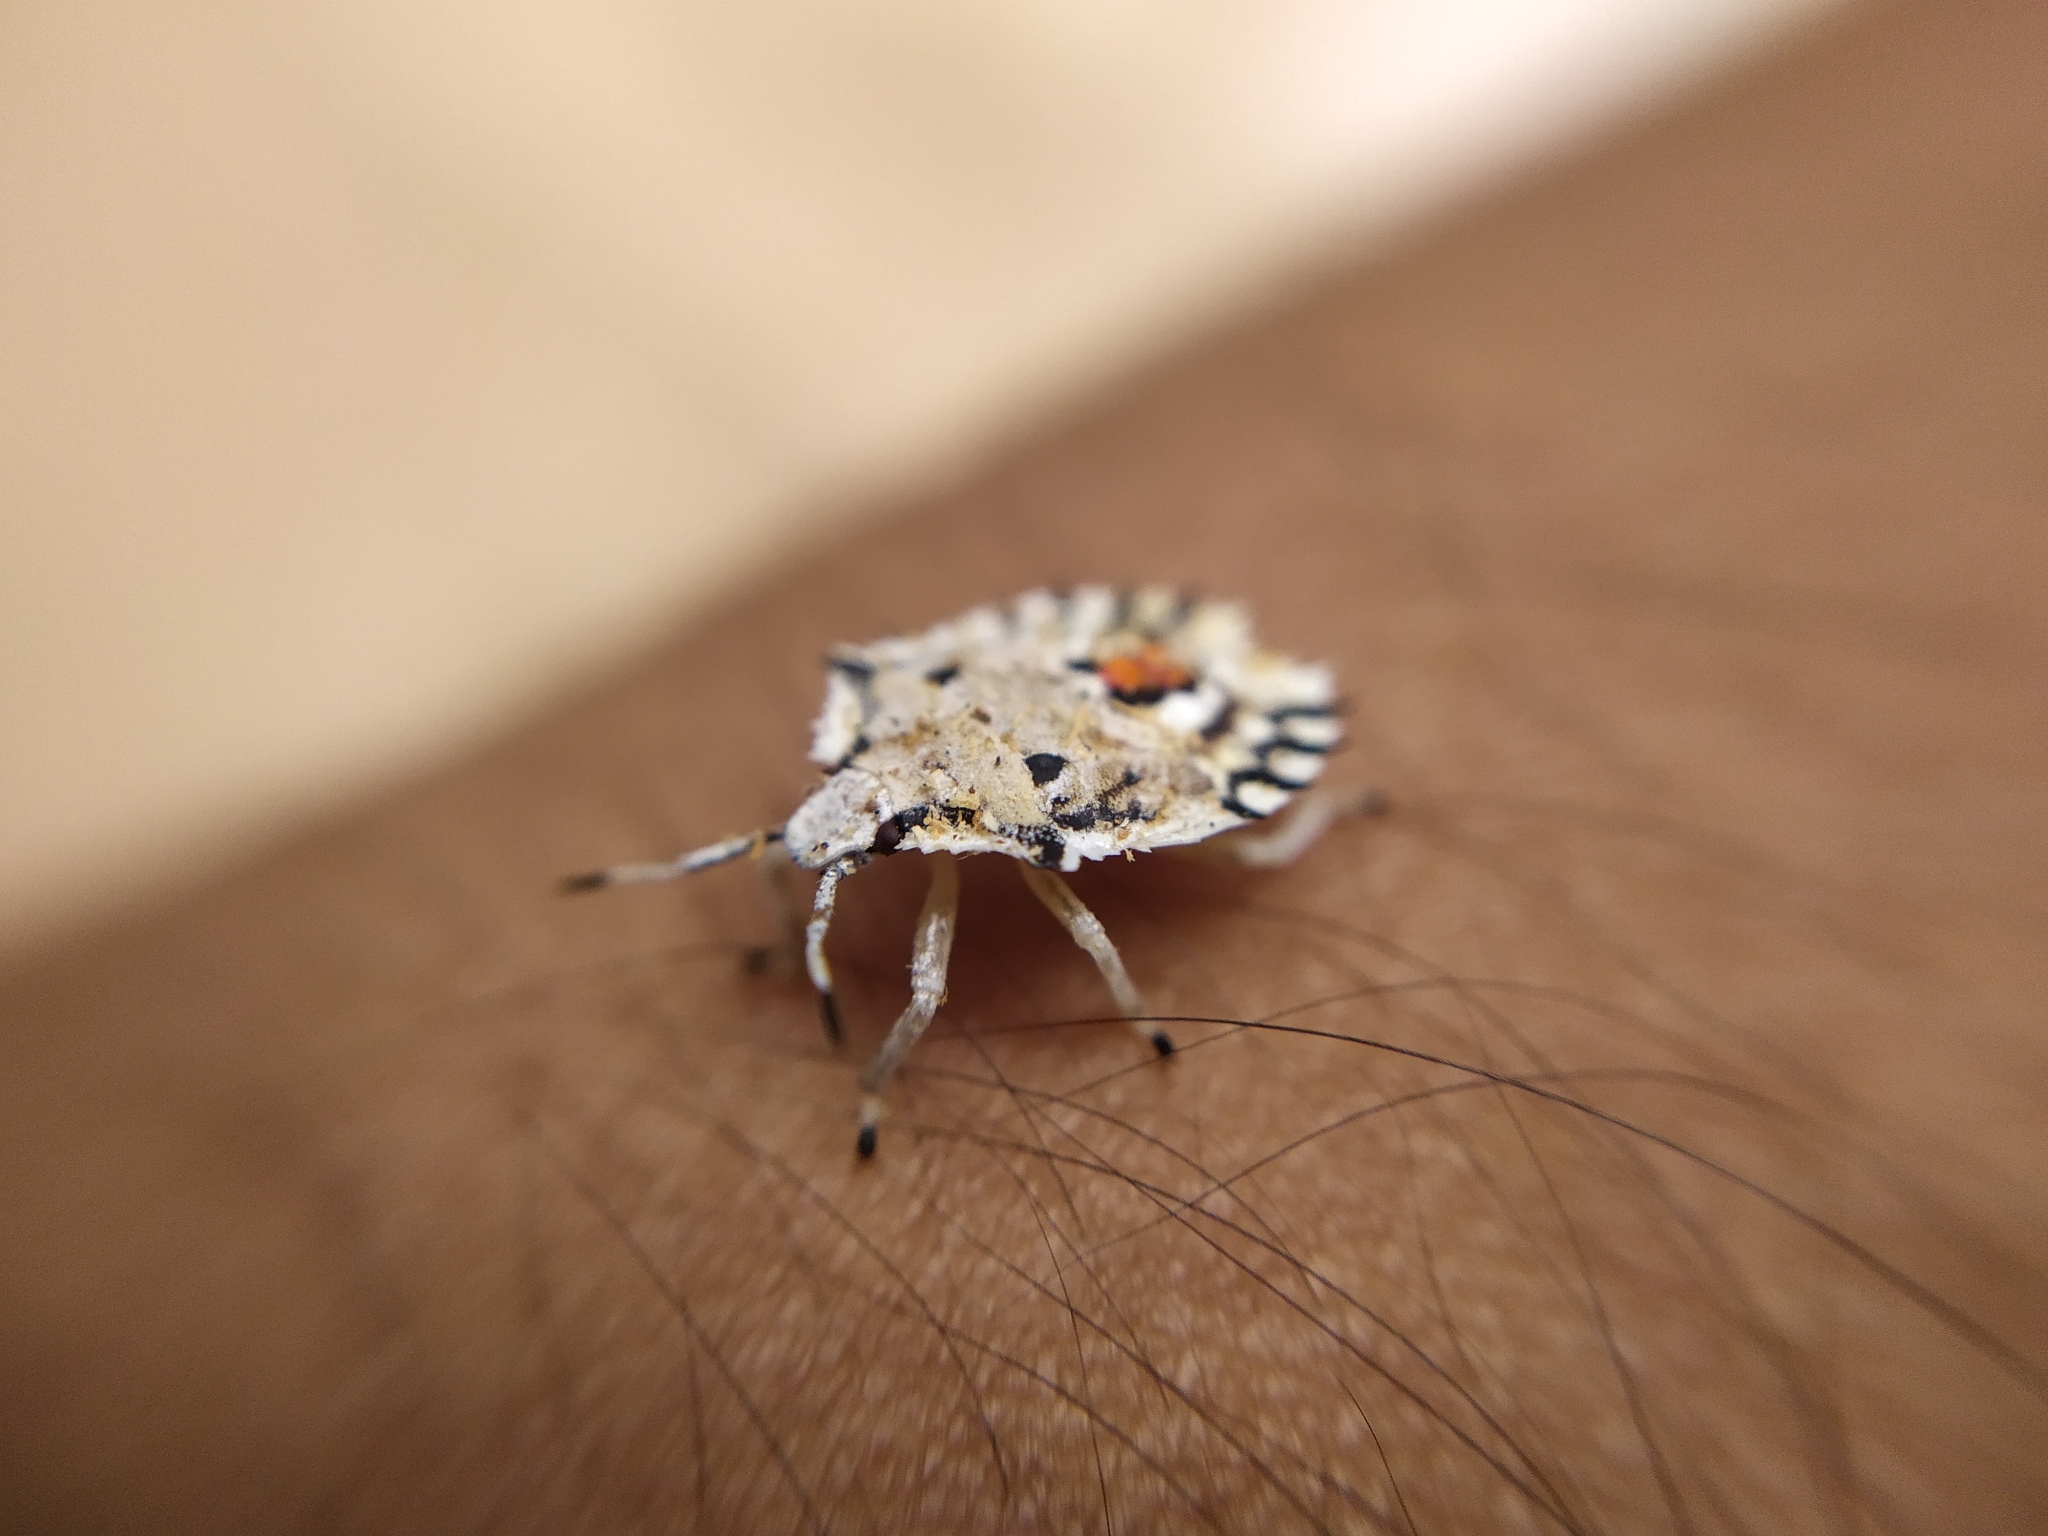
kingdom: Animalia
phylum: Arthropoda
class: Insecta
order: Hemiptera
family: Pentatomidae
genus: Degonetus
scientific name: Degonetus serratus
